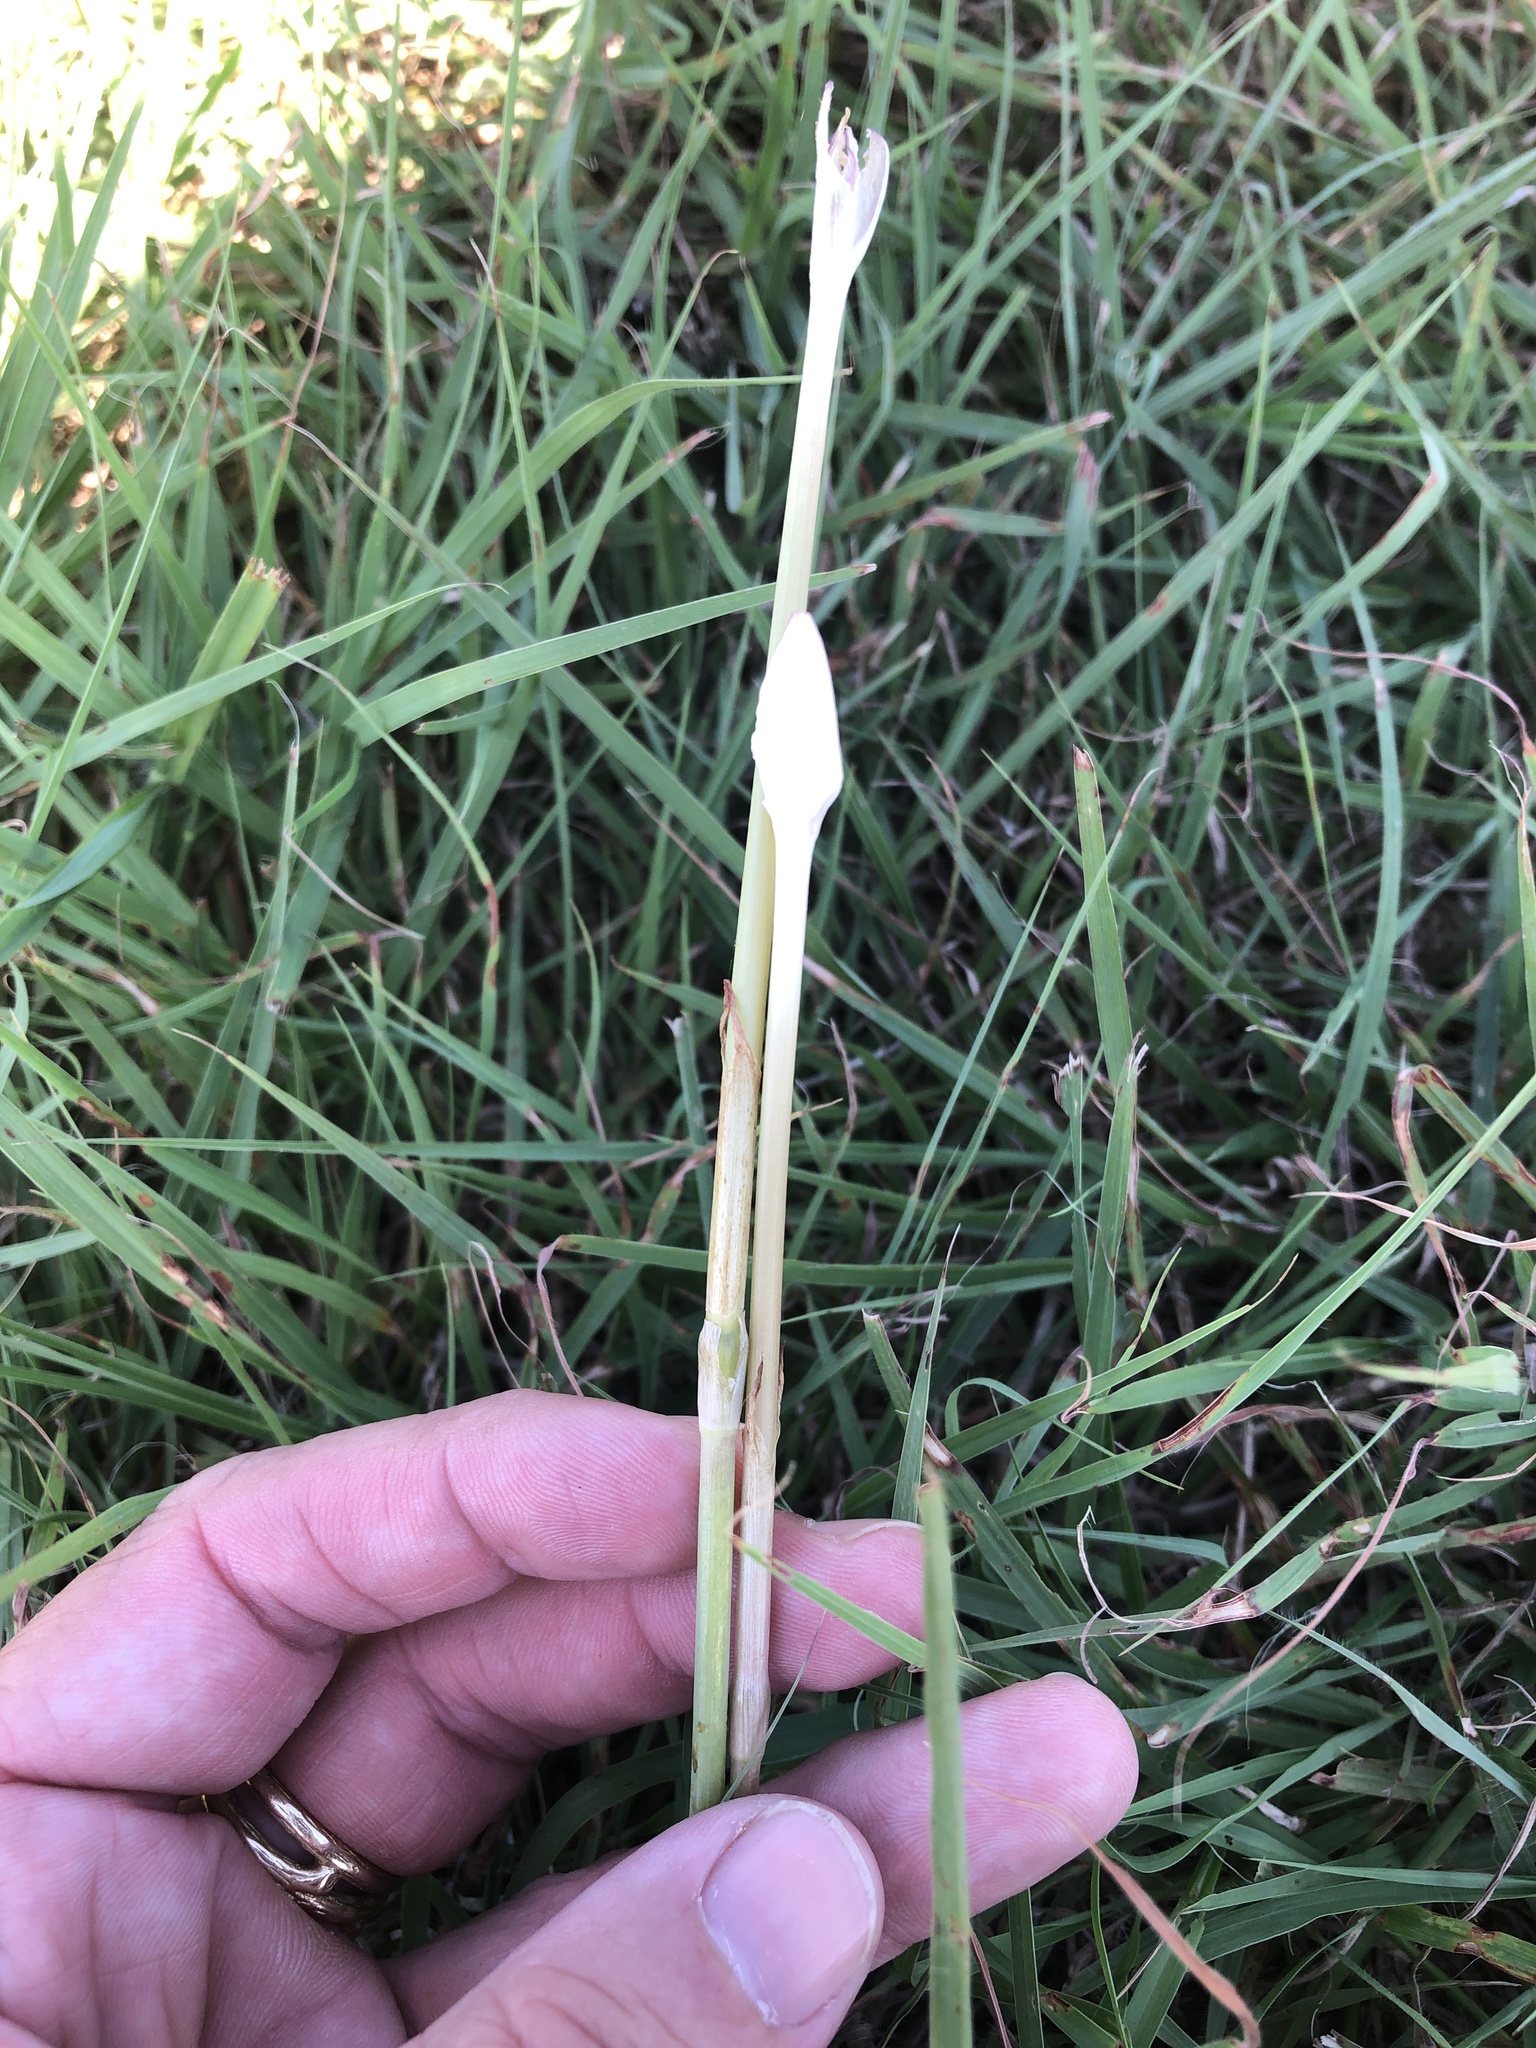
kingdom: Plantae
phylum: Tracheophyta
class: Liliopsida
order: Asparagales
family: Amaryllidaceae
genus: Zephyranthes
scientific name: Zephyranthes chlorosolen
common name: Evening rain-lily
